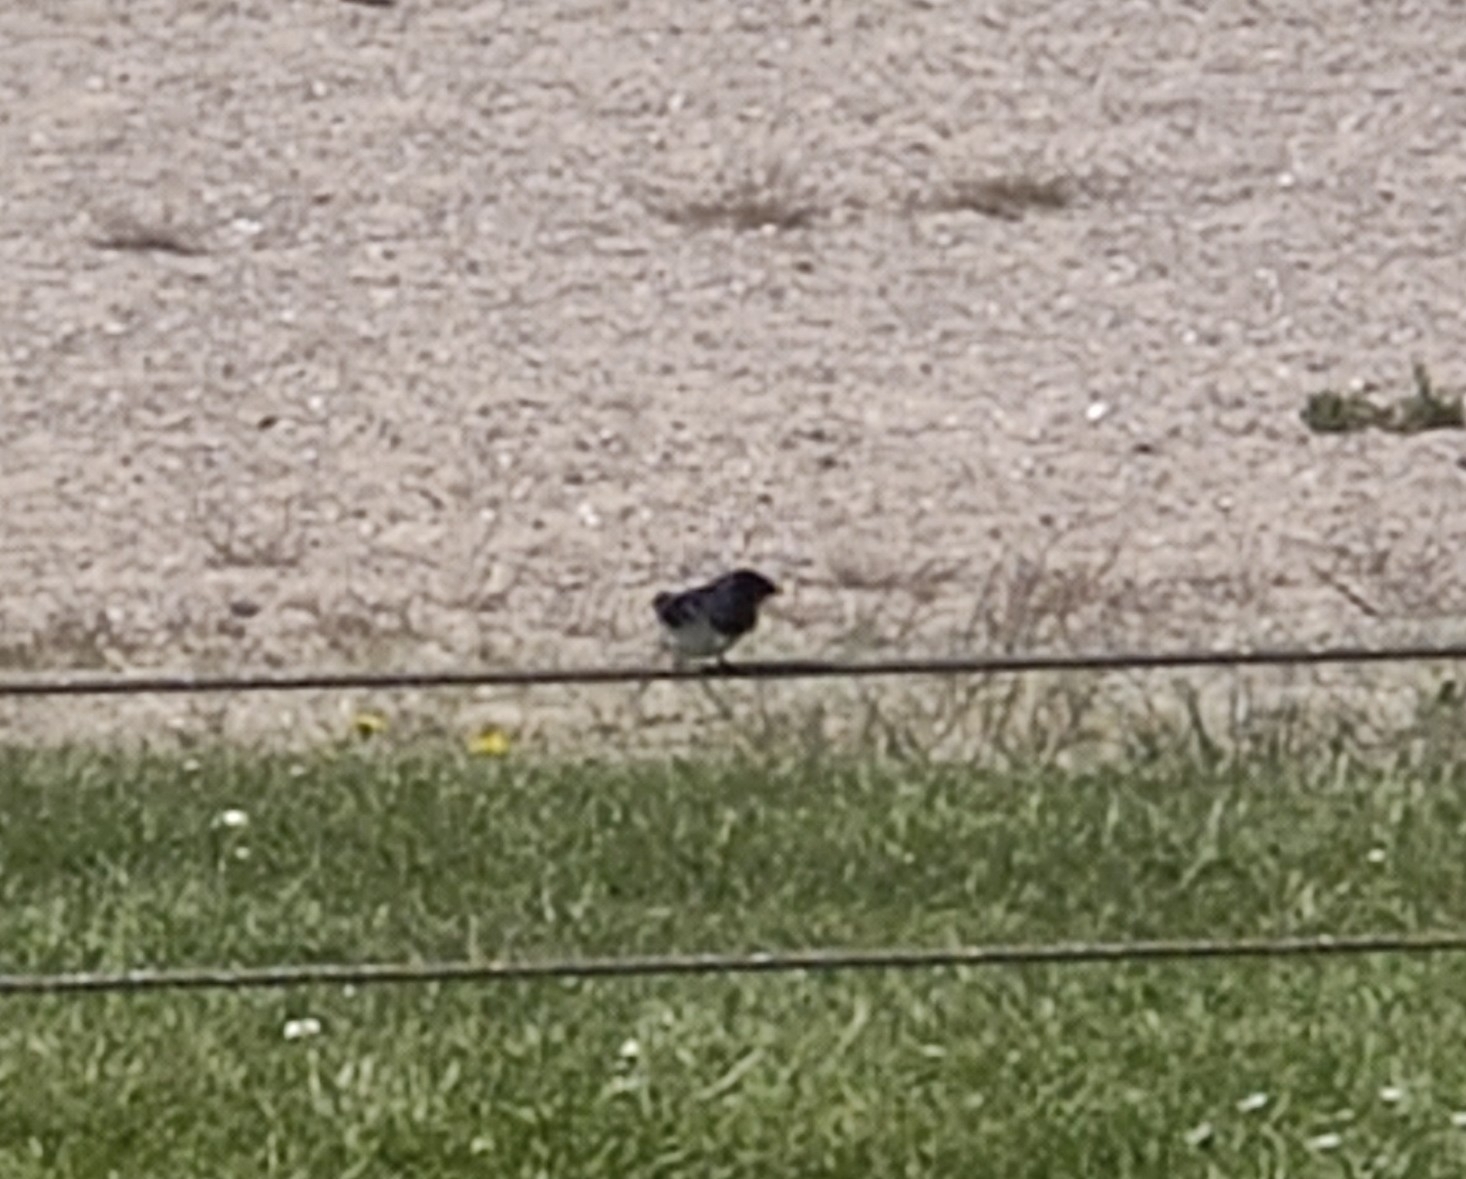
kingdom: Animalia
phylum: Chordata
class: Aves
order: Passeriformes
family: Hirundinidae
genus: Hirundo
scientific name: Hirundo rustica
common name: Barn swallow
